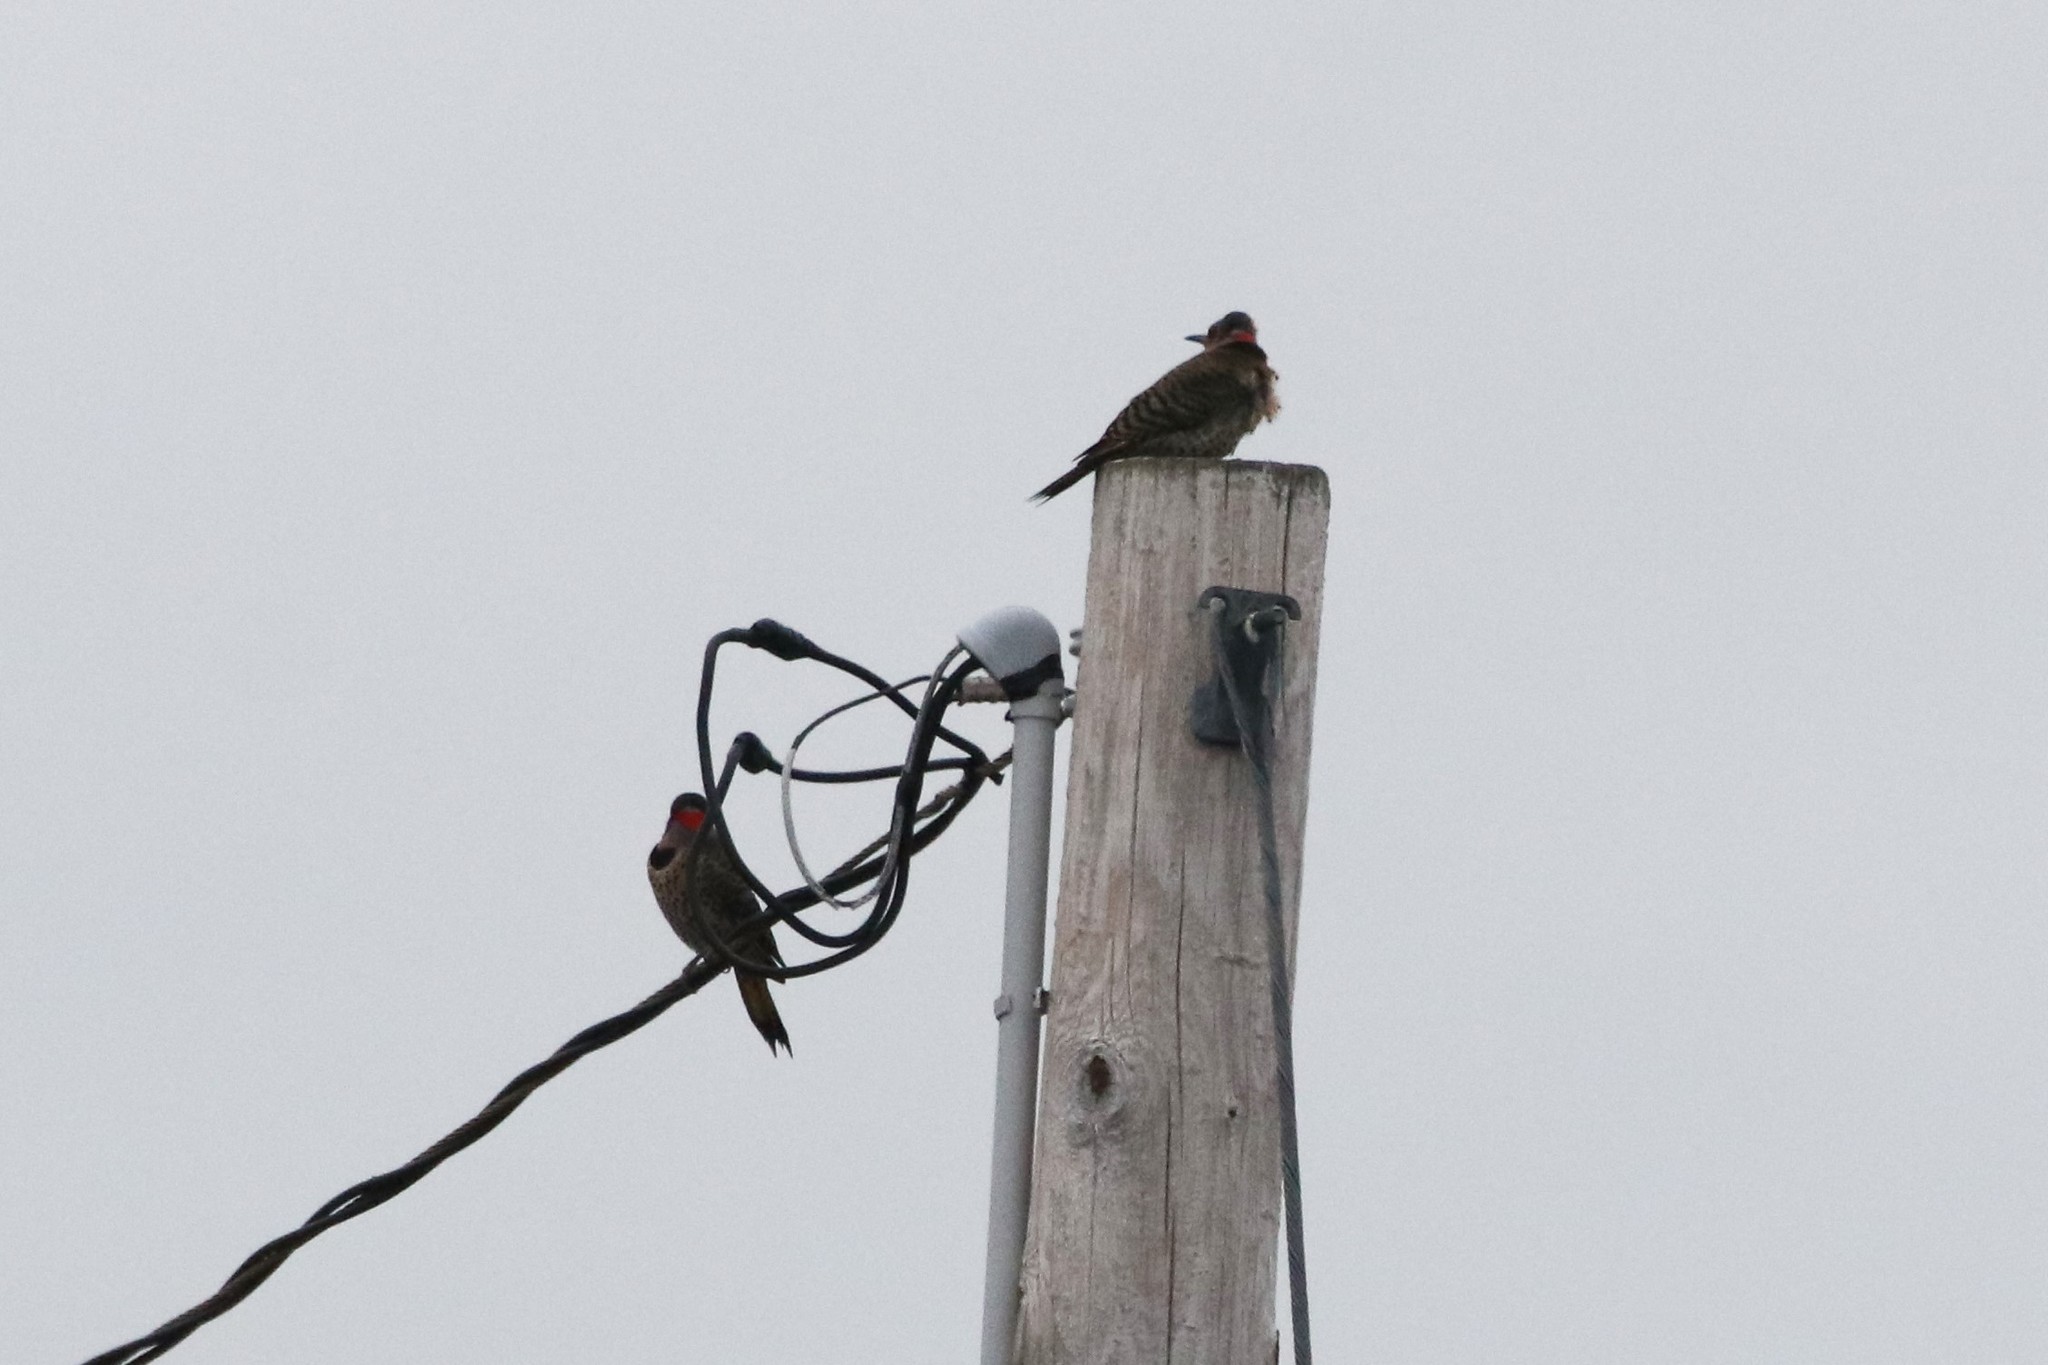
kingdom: Animalia
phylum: Chordata
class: Aves
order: Piciformes
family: Picidae
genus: Colaptes
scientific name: Colaptes auratus
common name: Northern flicker
